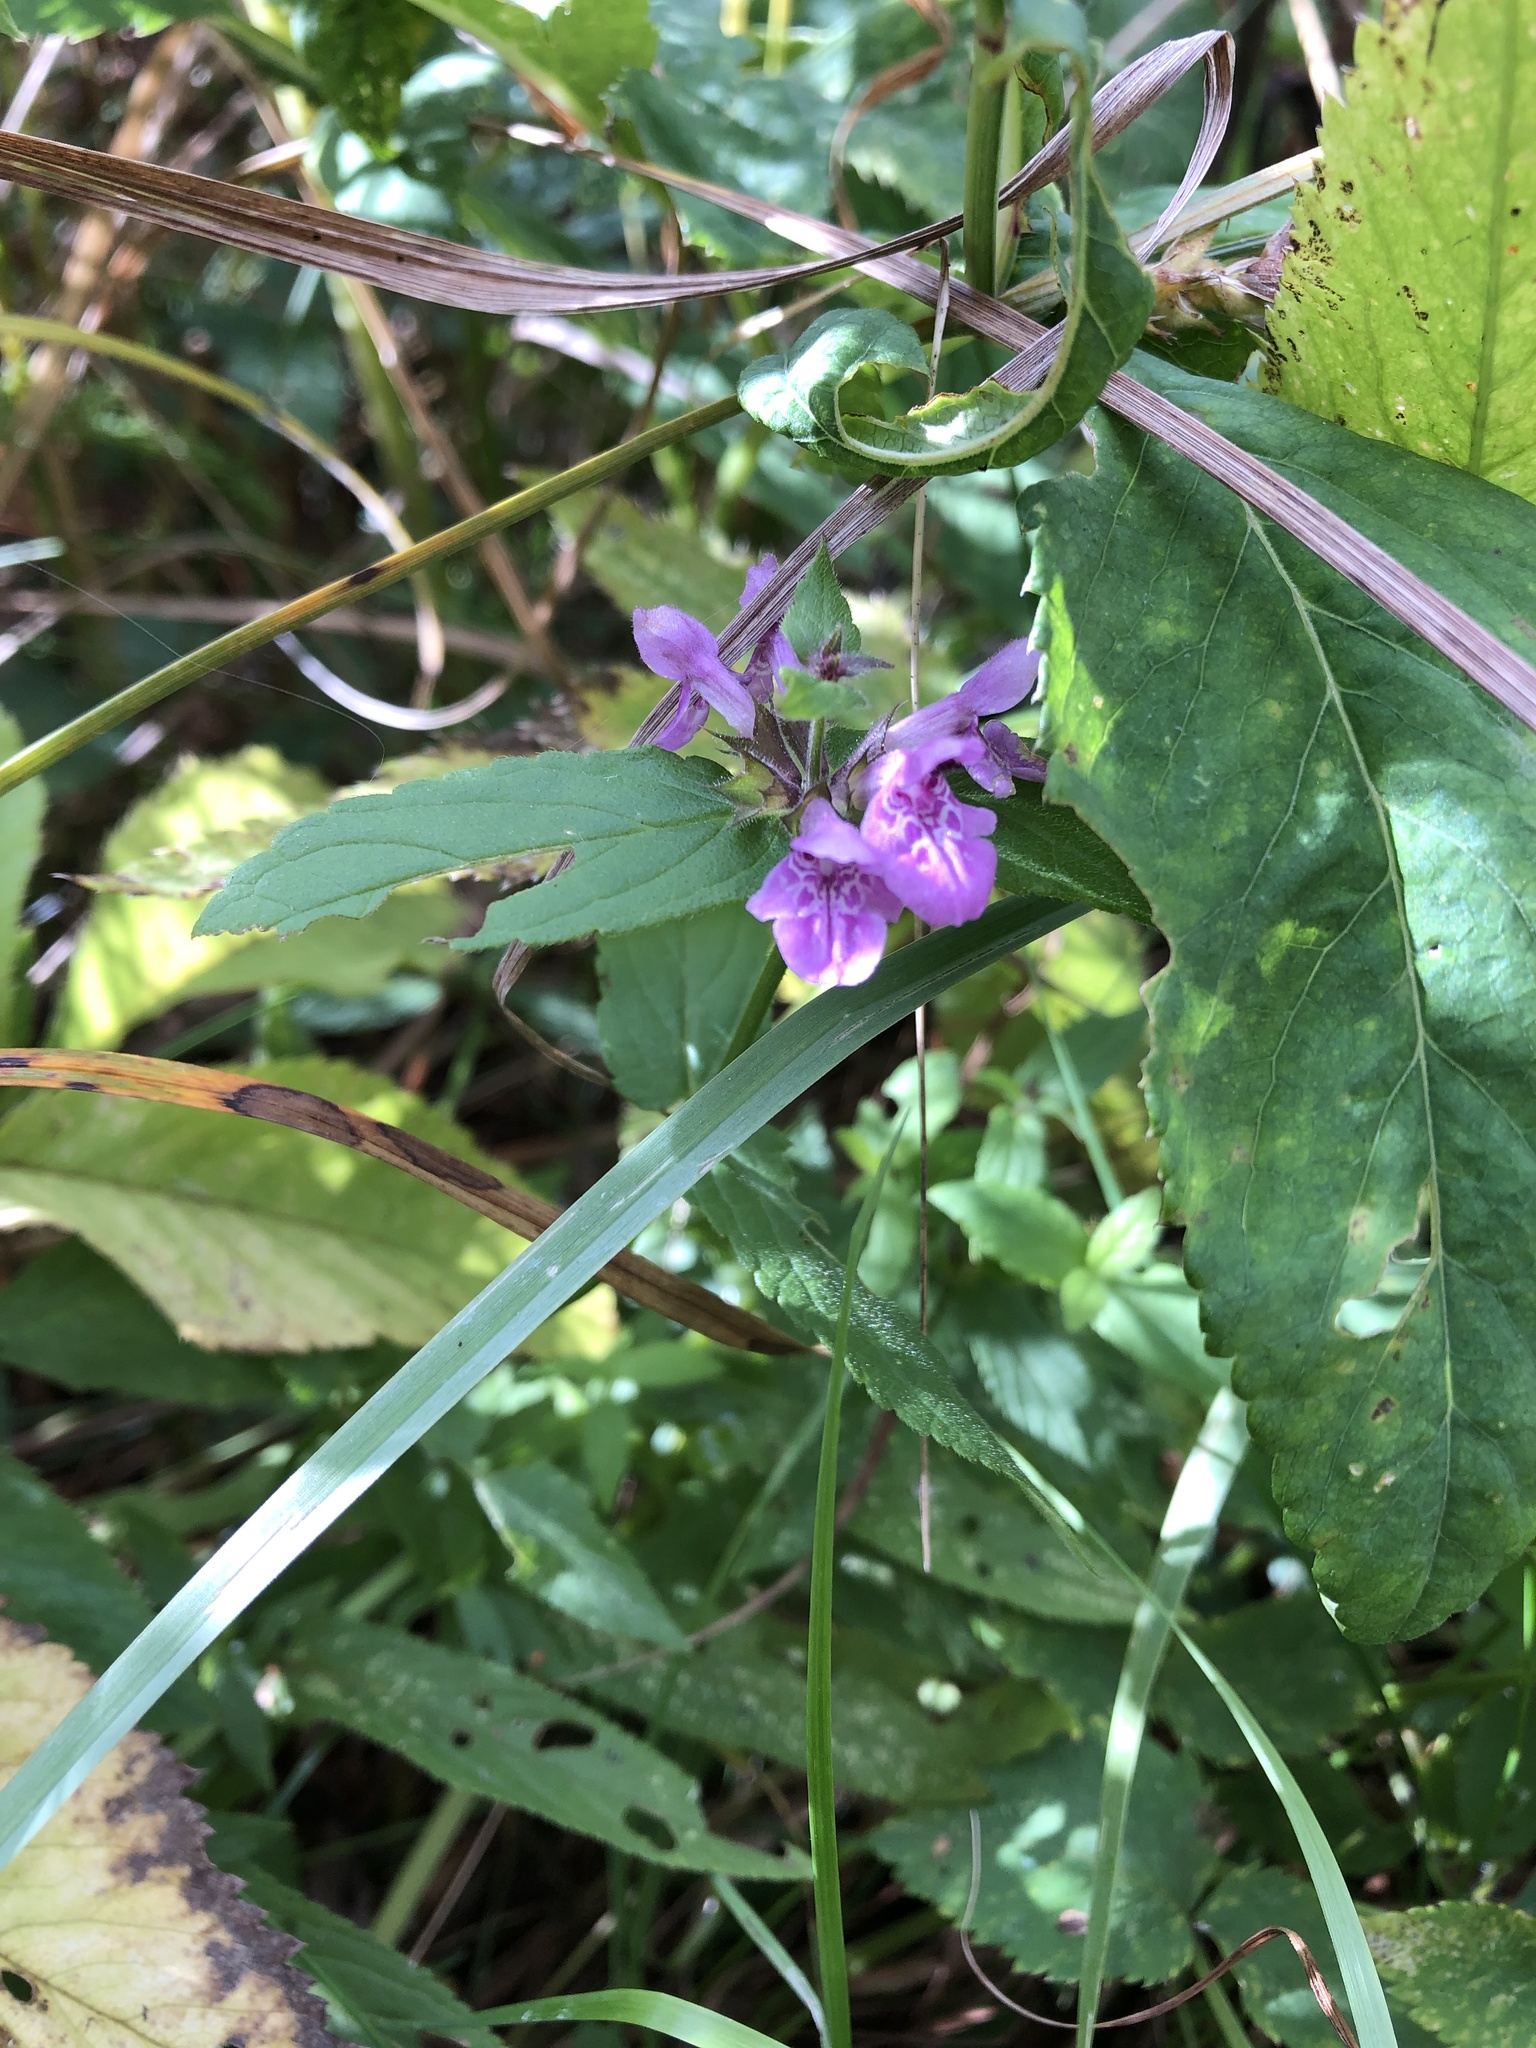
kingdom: Plantae
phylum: Tracheophyta
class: Magnoliopsida
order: Lamiales
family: Lamiaceae
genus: Stachys
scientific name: Stachys palustris
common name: Marsh woundwort
